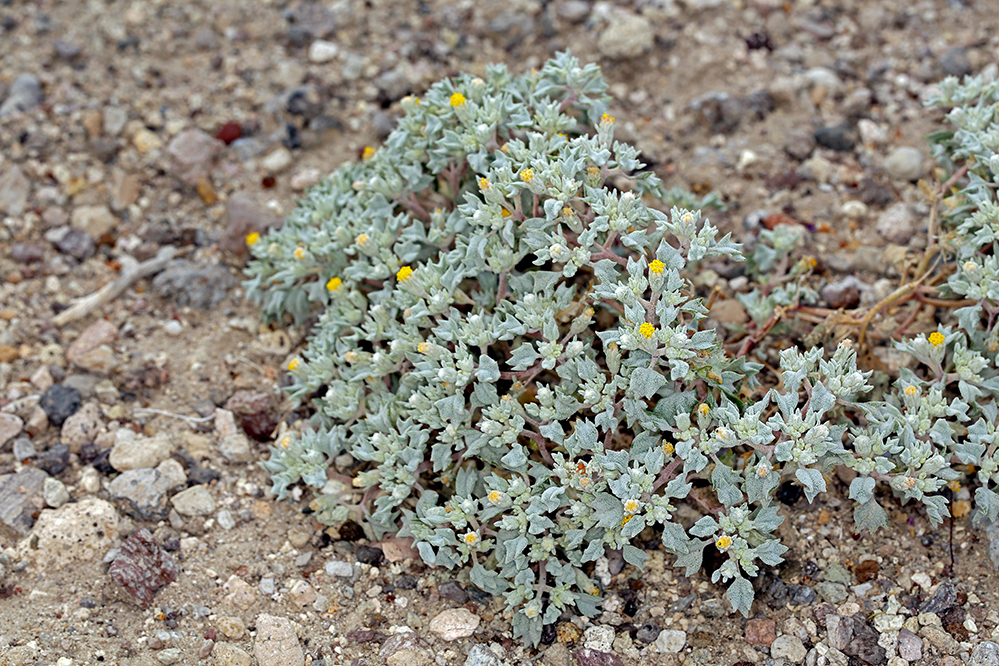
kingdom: Plantae
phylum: Tracheophyta
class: Magnoliopsida
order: Asterales
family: Asteraceae
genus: Psathyrotes
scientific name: Psathyrotes annua
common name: Mealy rosettes
